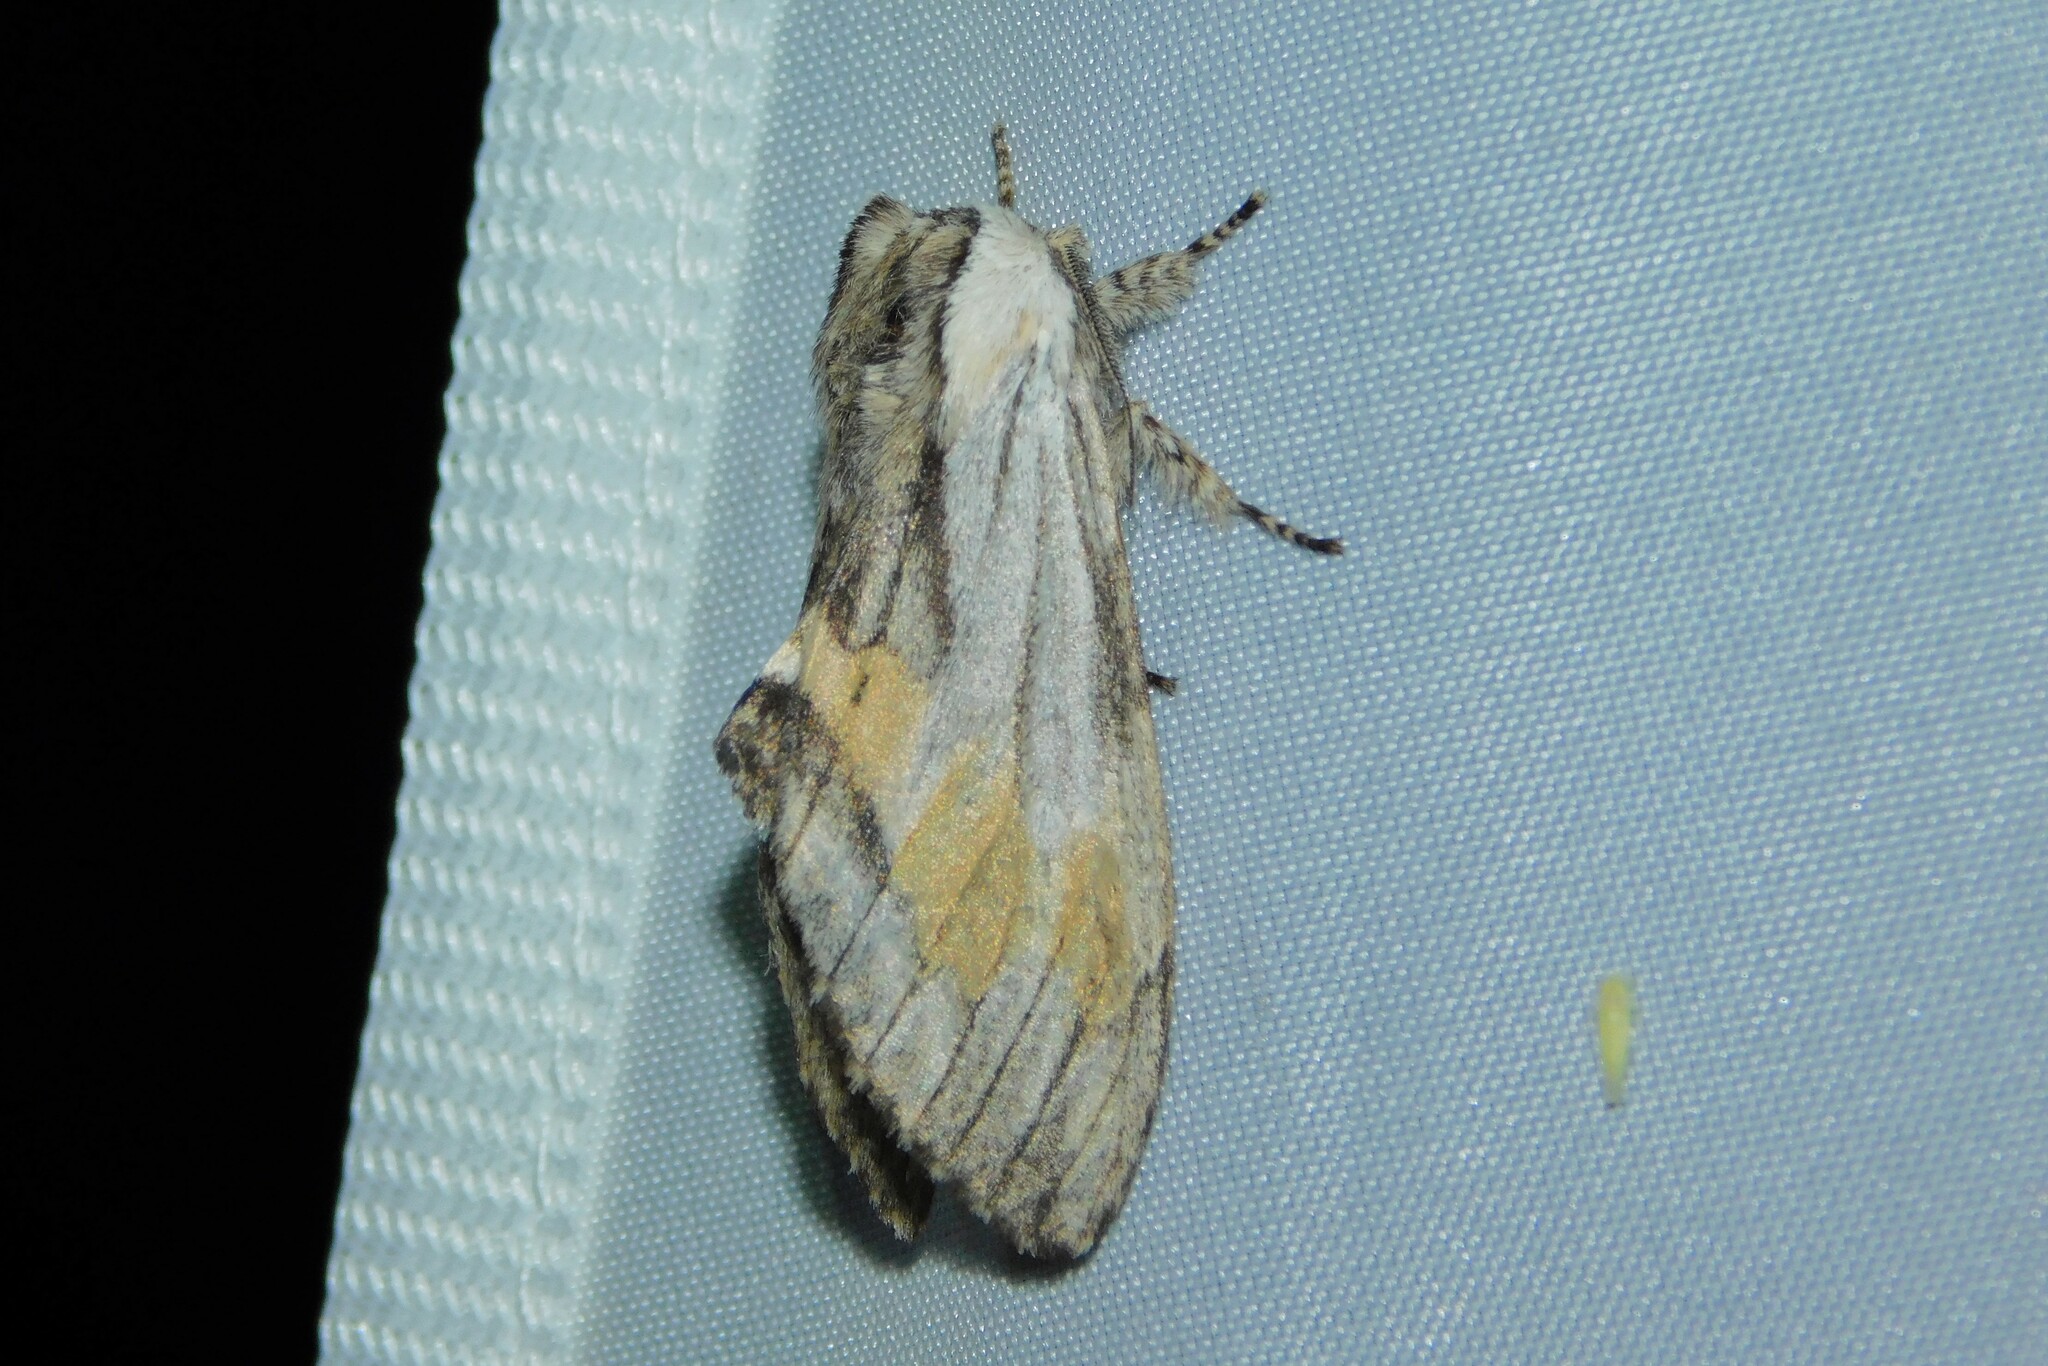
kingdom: Animalia
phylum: Arthropoda
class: Insecta
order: Lepidoptera
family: Notodontidae
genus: Harpyia
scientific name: Harpyia milhauseri
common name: Tawny prominent
